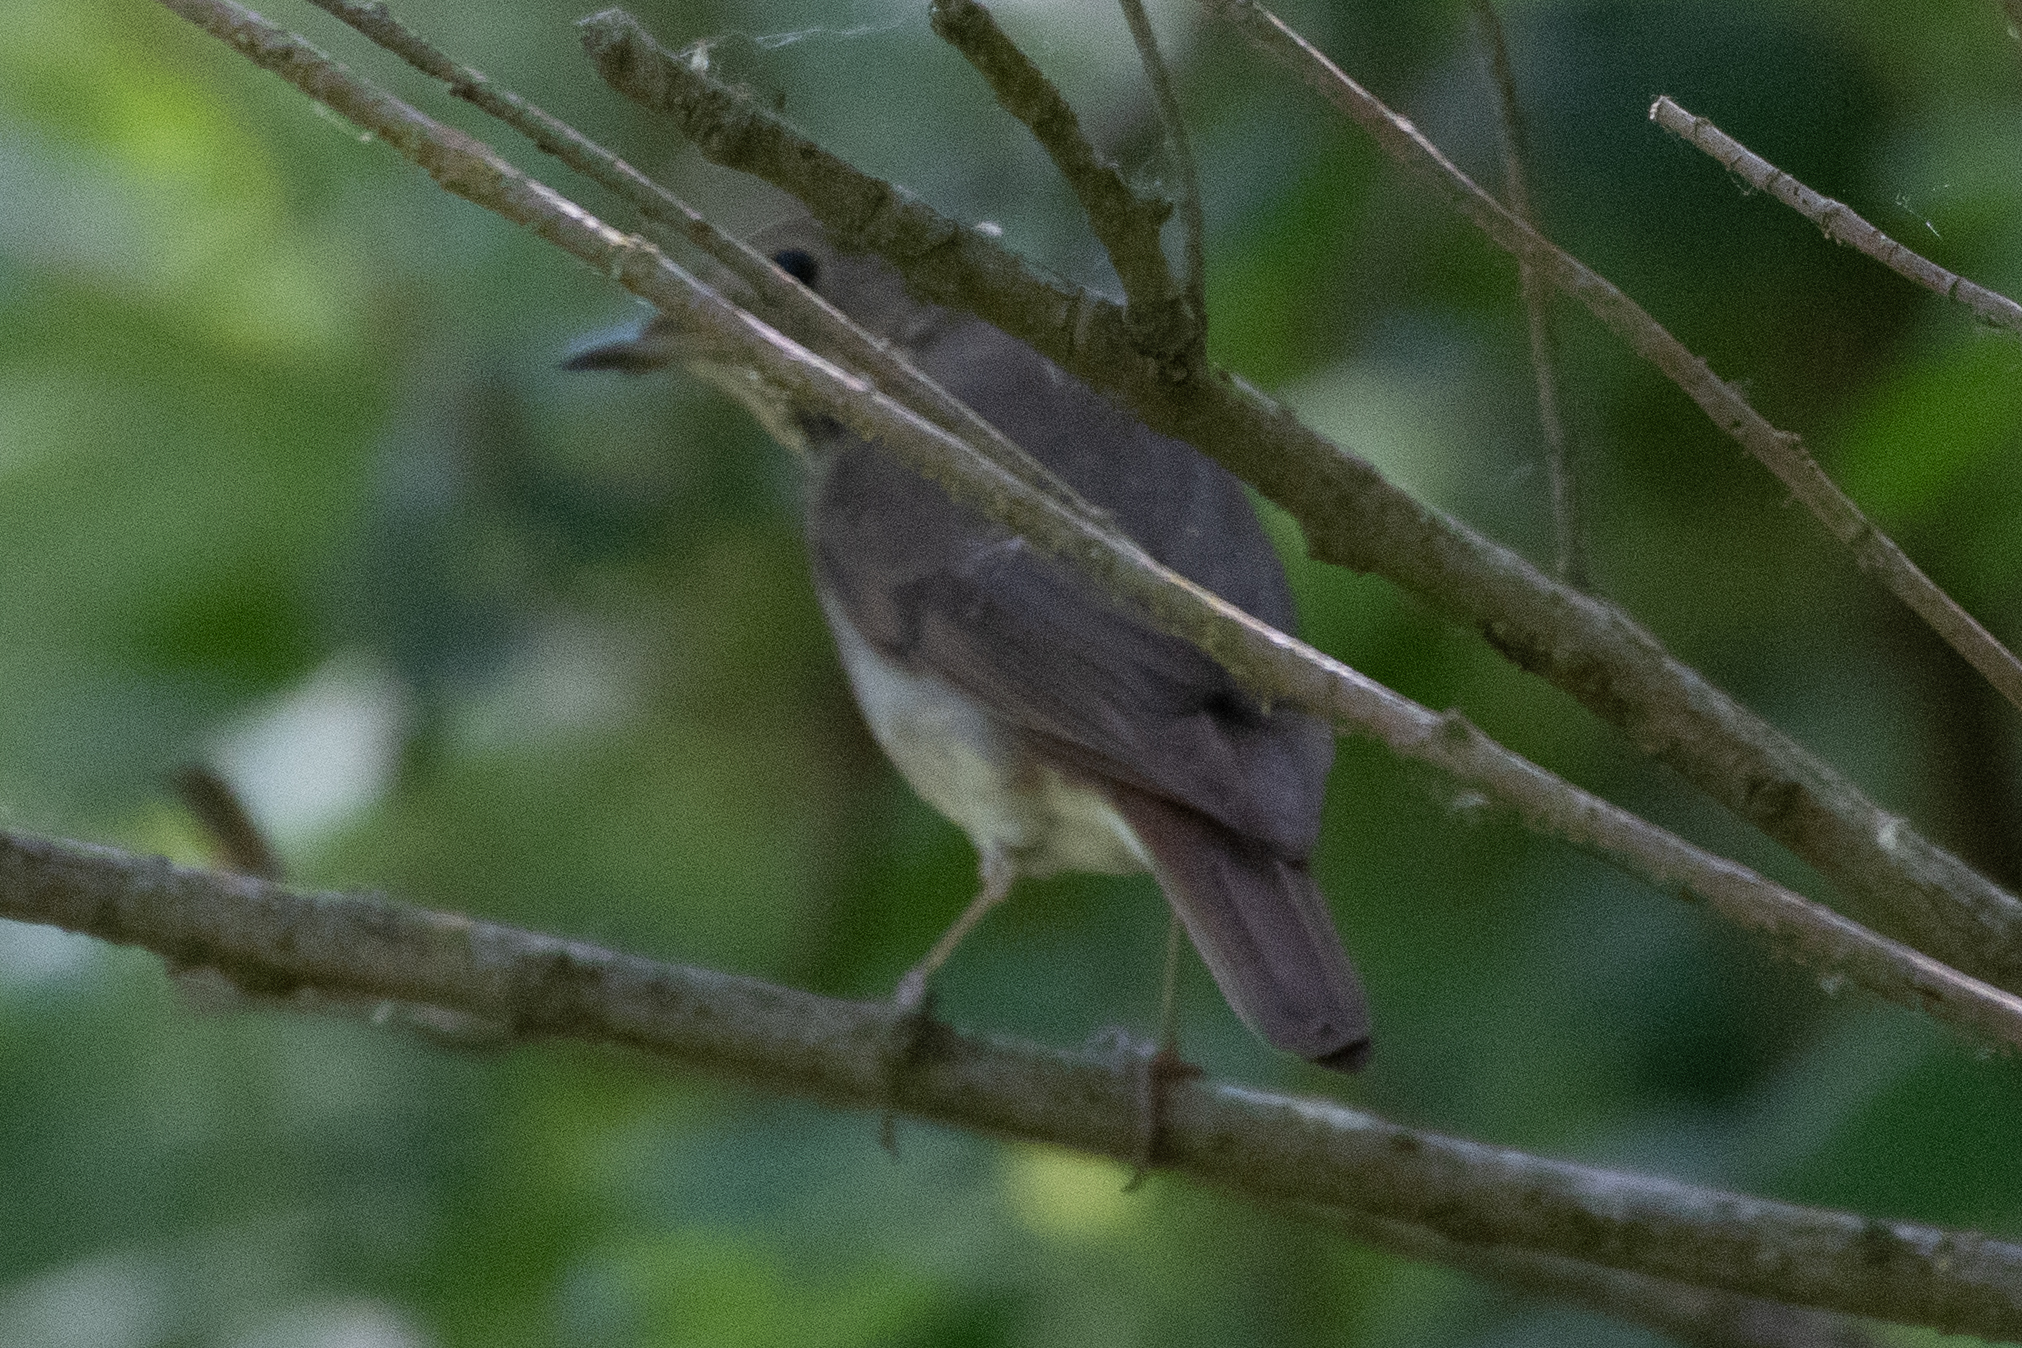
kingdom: Animalia
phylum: Chordata
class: Aves
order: Passeriformes
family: Turdidae
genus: Catharus
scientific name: Catharus guttatus
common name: Hermit thrush
